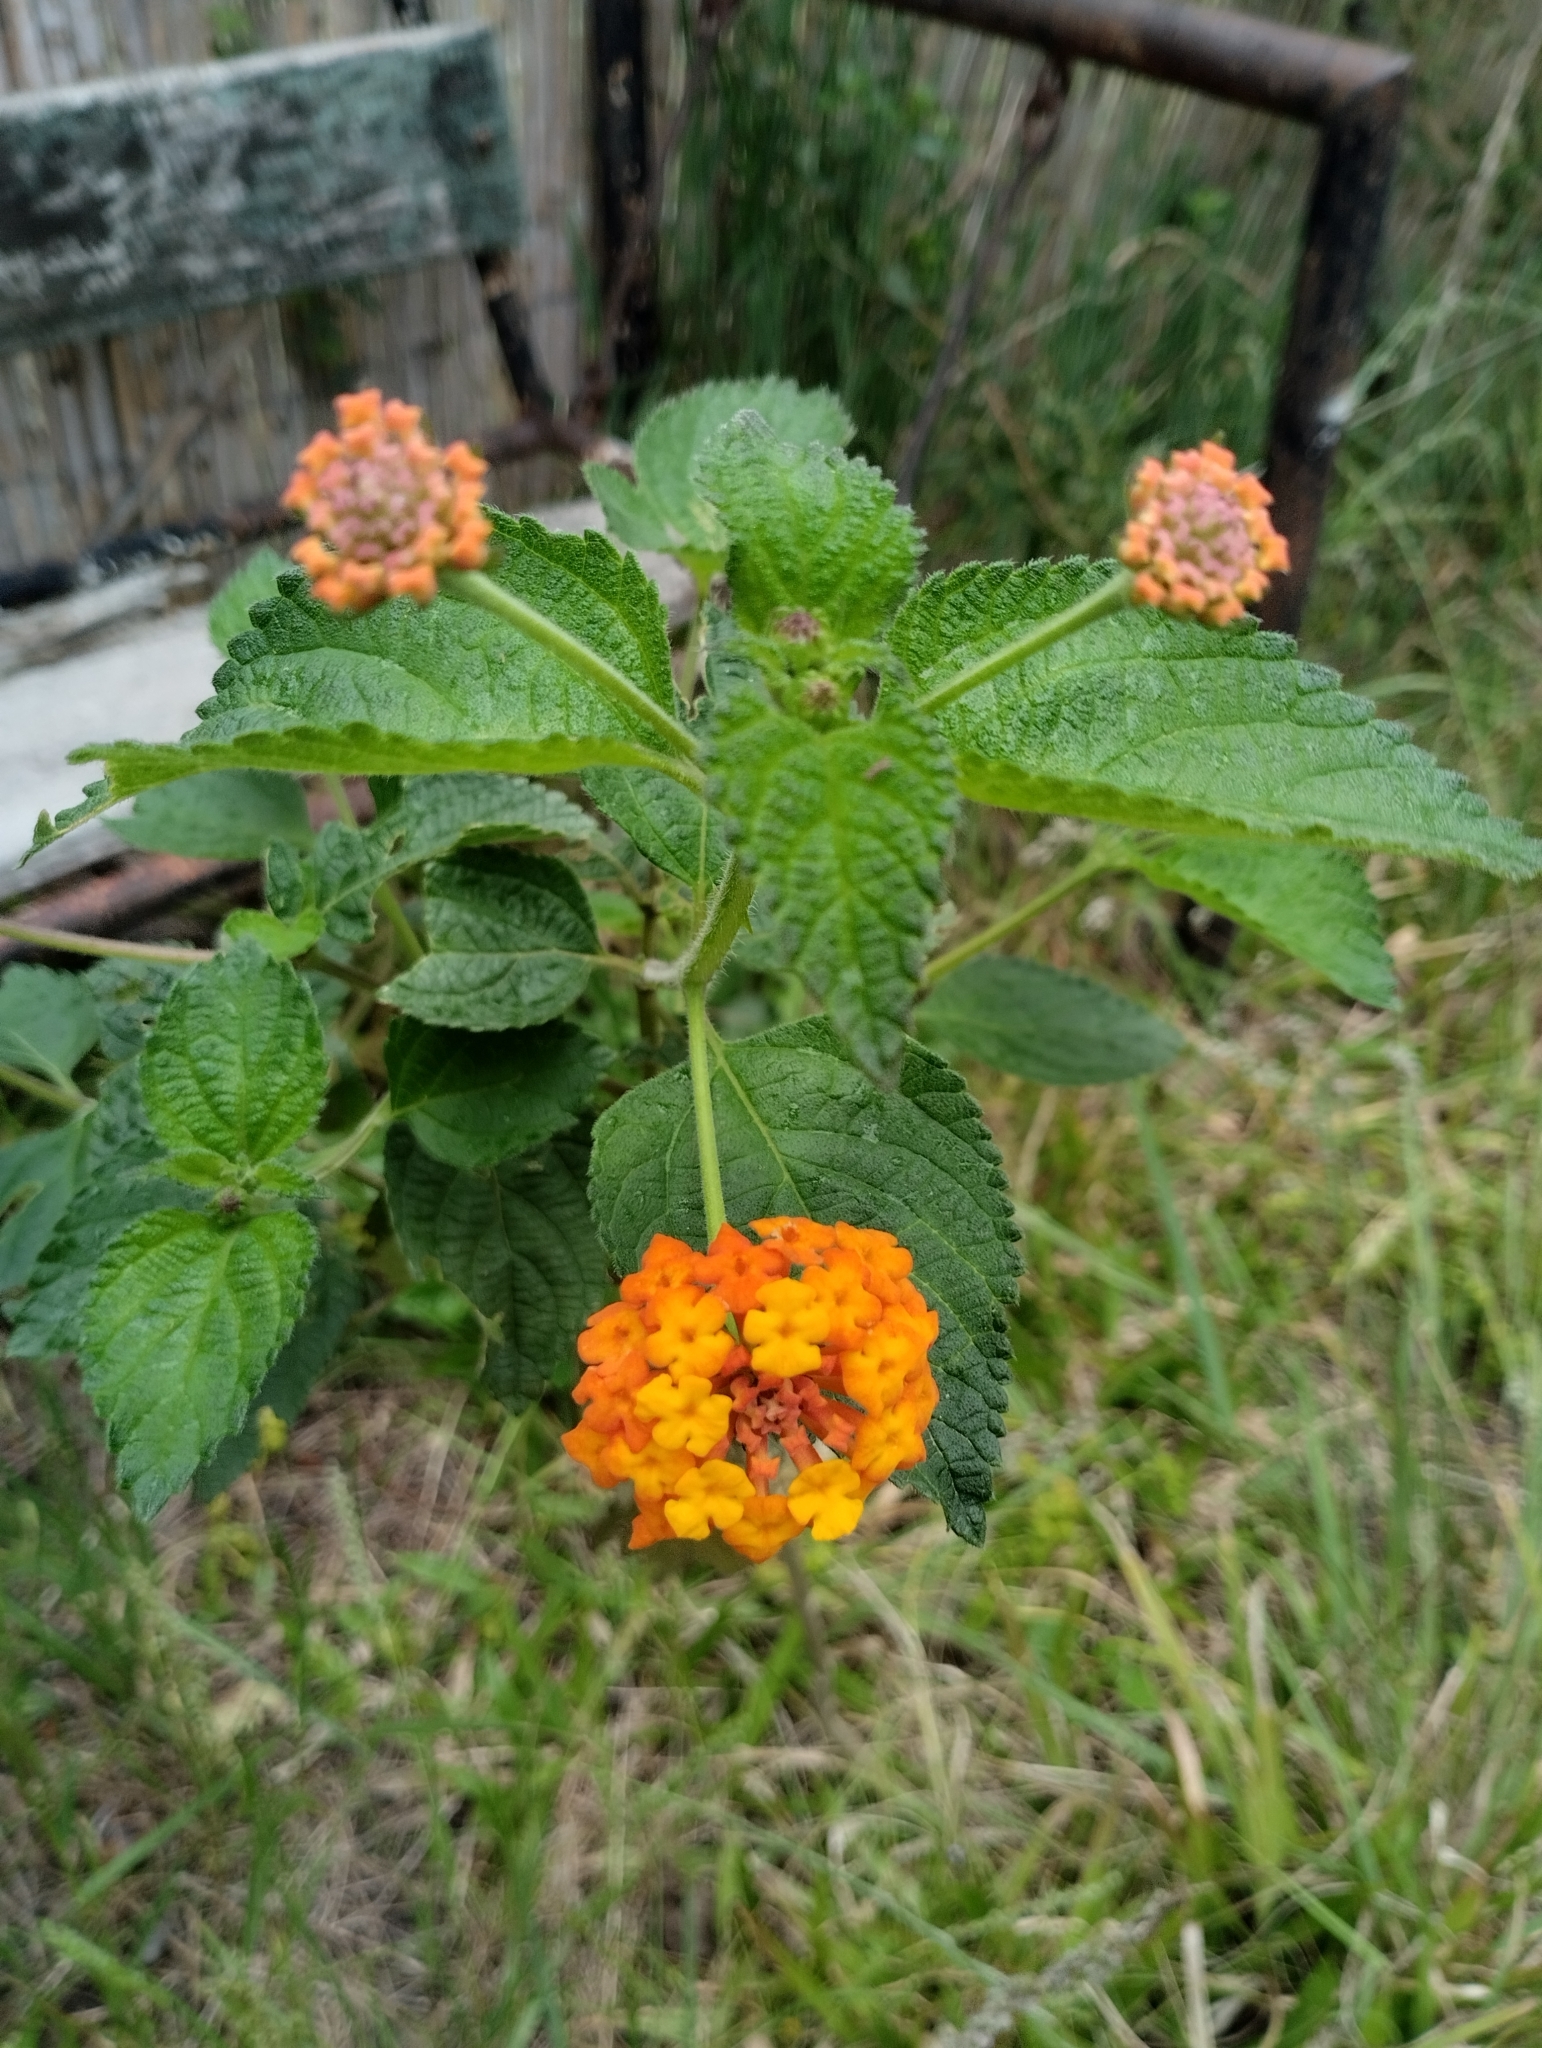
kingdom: Plantae
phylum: Tracheophyta
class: Magnoliopsida
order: Lamiales
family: Verbenaceae
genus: Lantana
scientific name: Lantana camara
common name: Lantana
